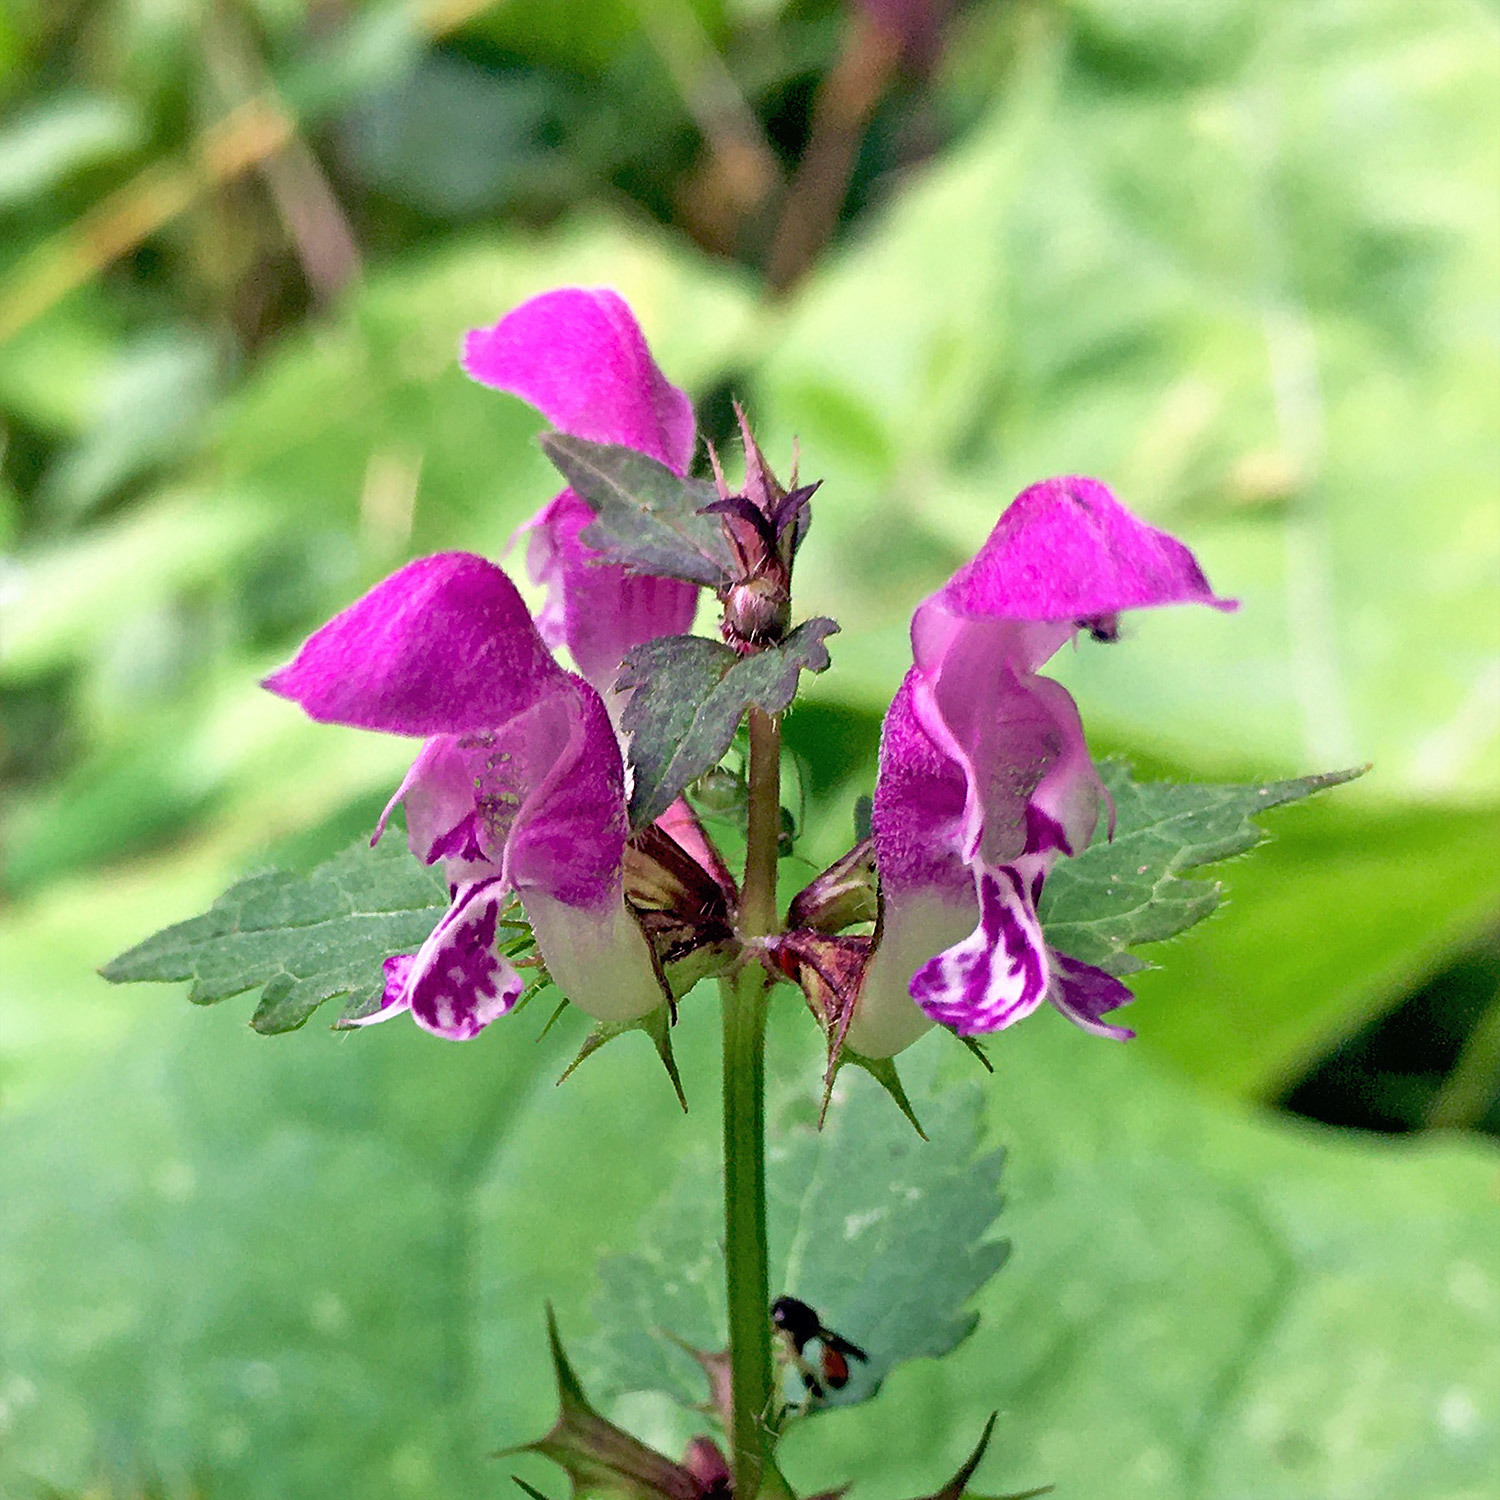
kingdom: Plantae
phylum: Tracheophyta
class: Magnoliopsida
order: Lamiales
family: Lamiaceae
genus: Lamium
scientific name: Lamium maculatum
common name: Spotted dead-nettle
